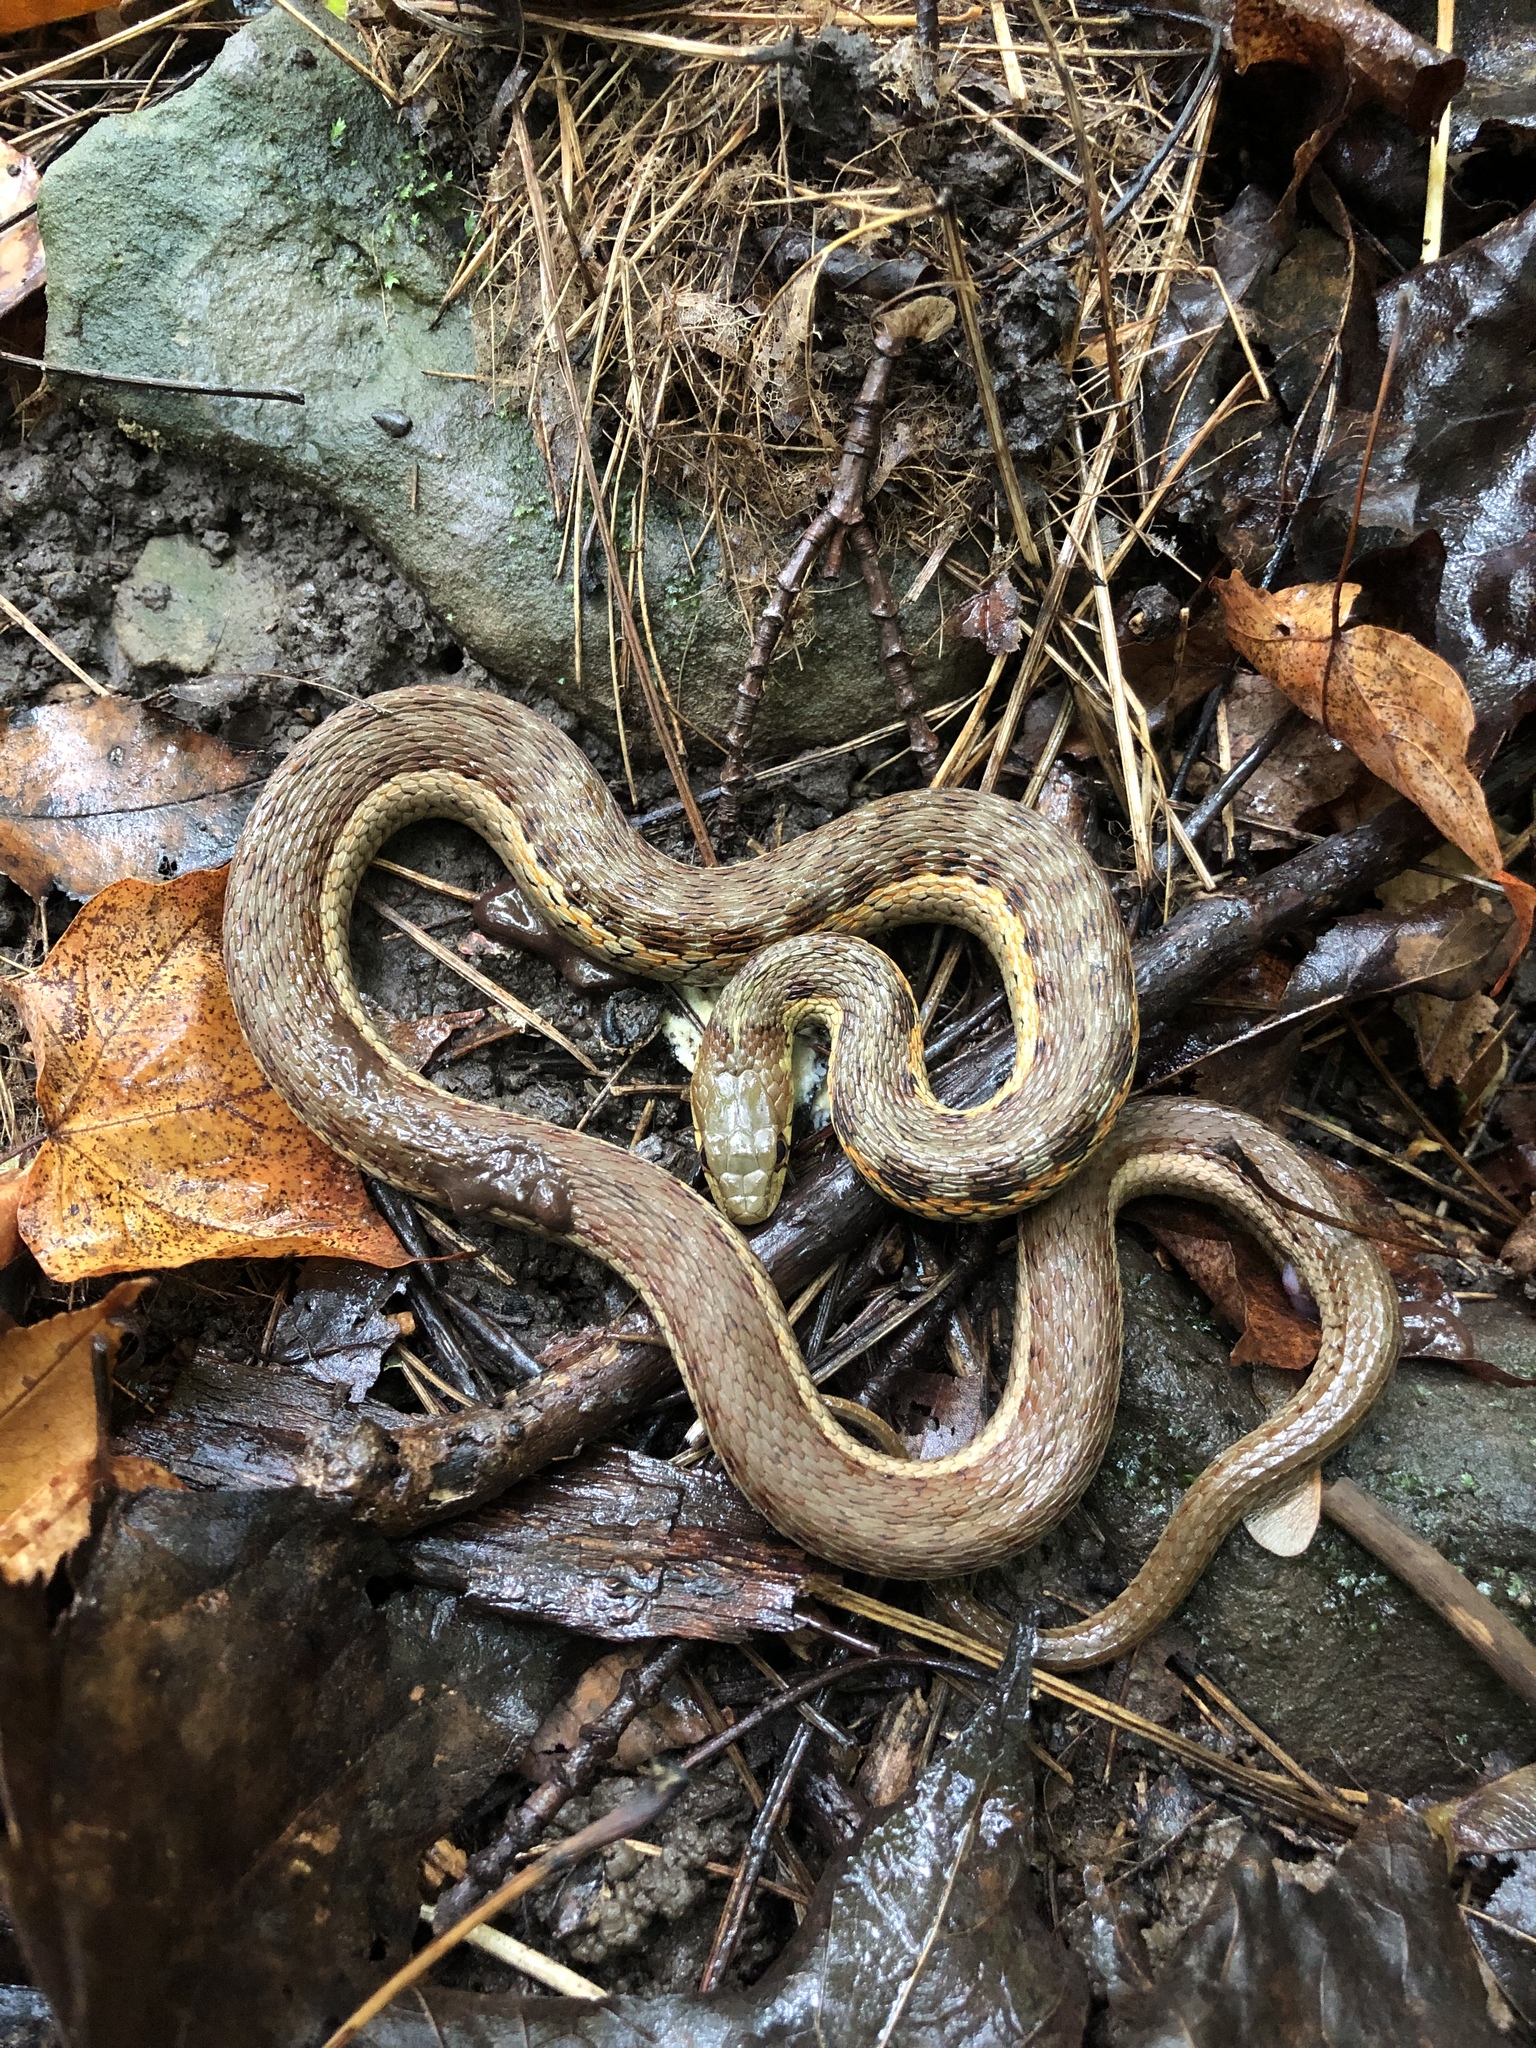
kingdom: Animalia
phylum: Chordata
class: Squamata
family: Colubridae
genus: Thamnophis
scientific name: Thamnophis sirtalis
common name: Common garter snake
